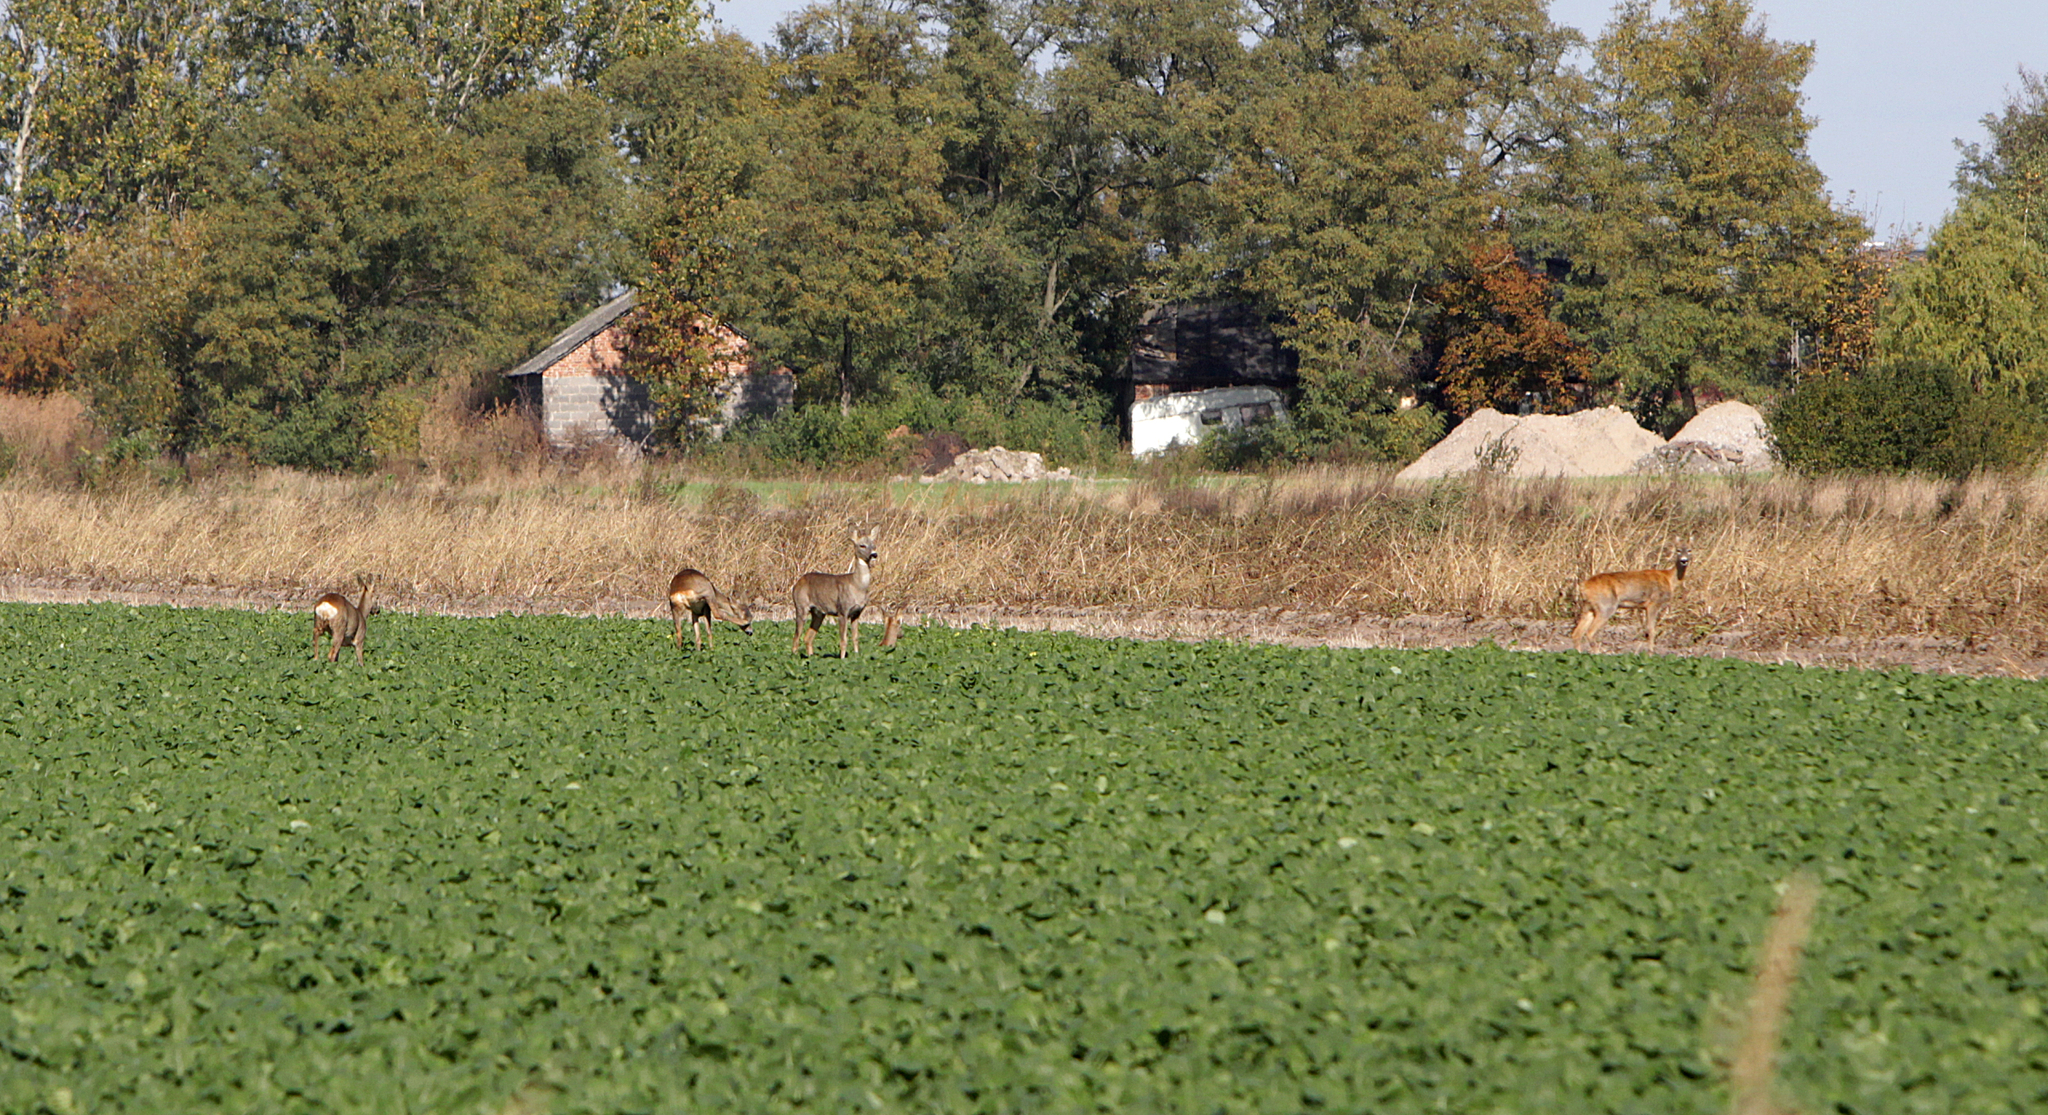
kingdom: Animalia
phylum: Chordata
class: Mammalia
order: Artiodactyla
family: Cervidae
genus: Capreolus
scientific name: Capreolus capreolus
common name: Western roe deer
